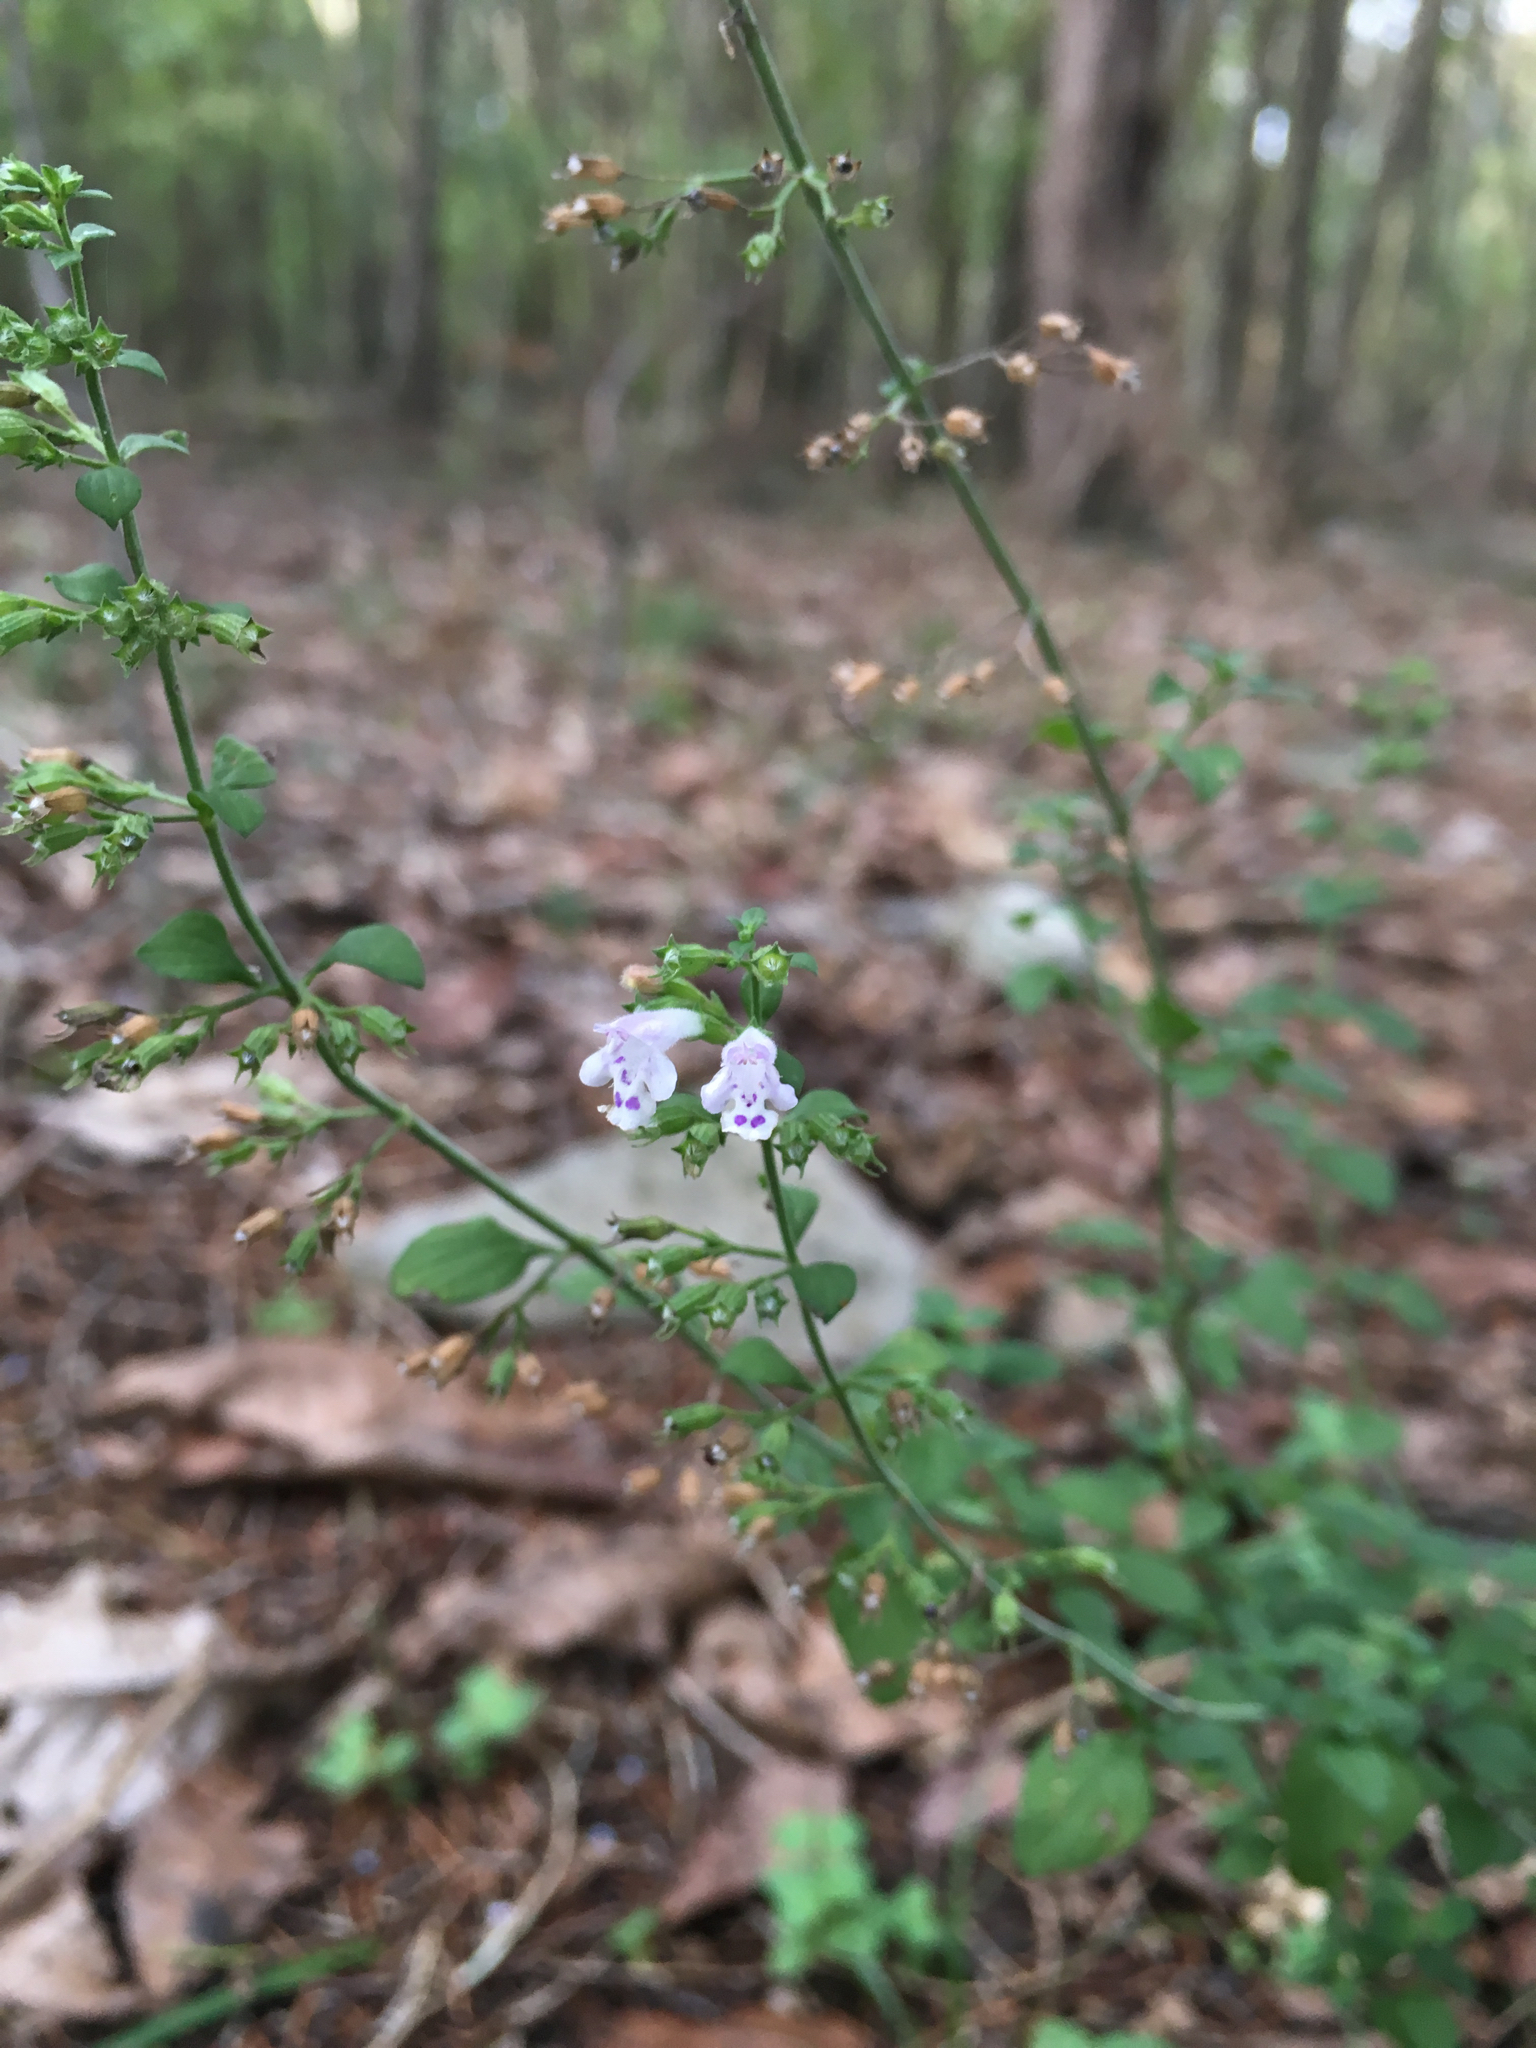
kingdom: Plantae
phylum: Tracheophyta
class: Magnoliopsida
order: Lamiales
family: Lamiaceae
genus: Clinopodium
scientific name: Clinopodium nepeta
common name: Lesser calamint
